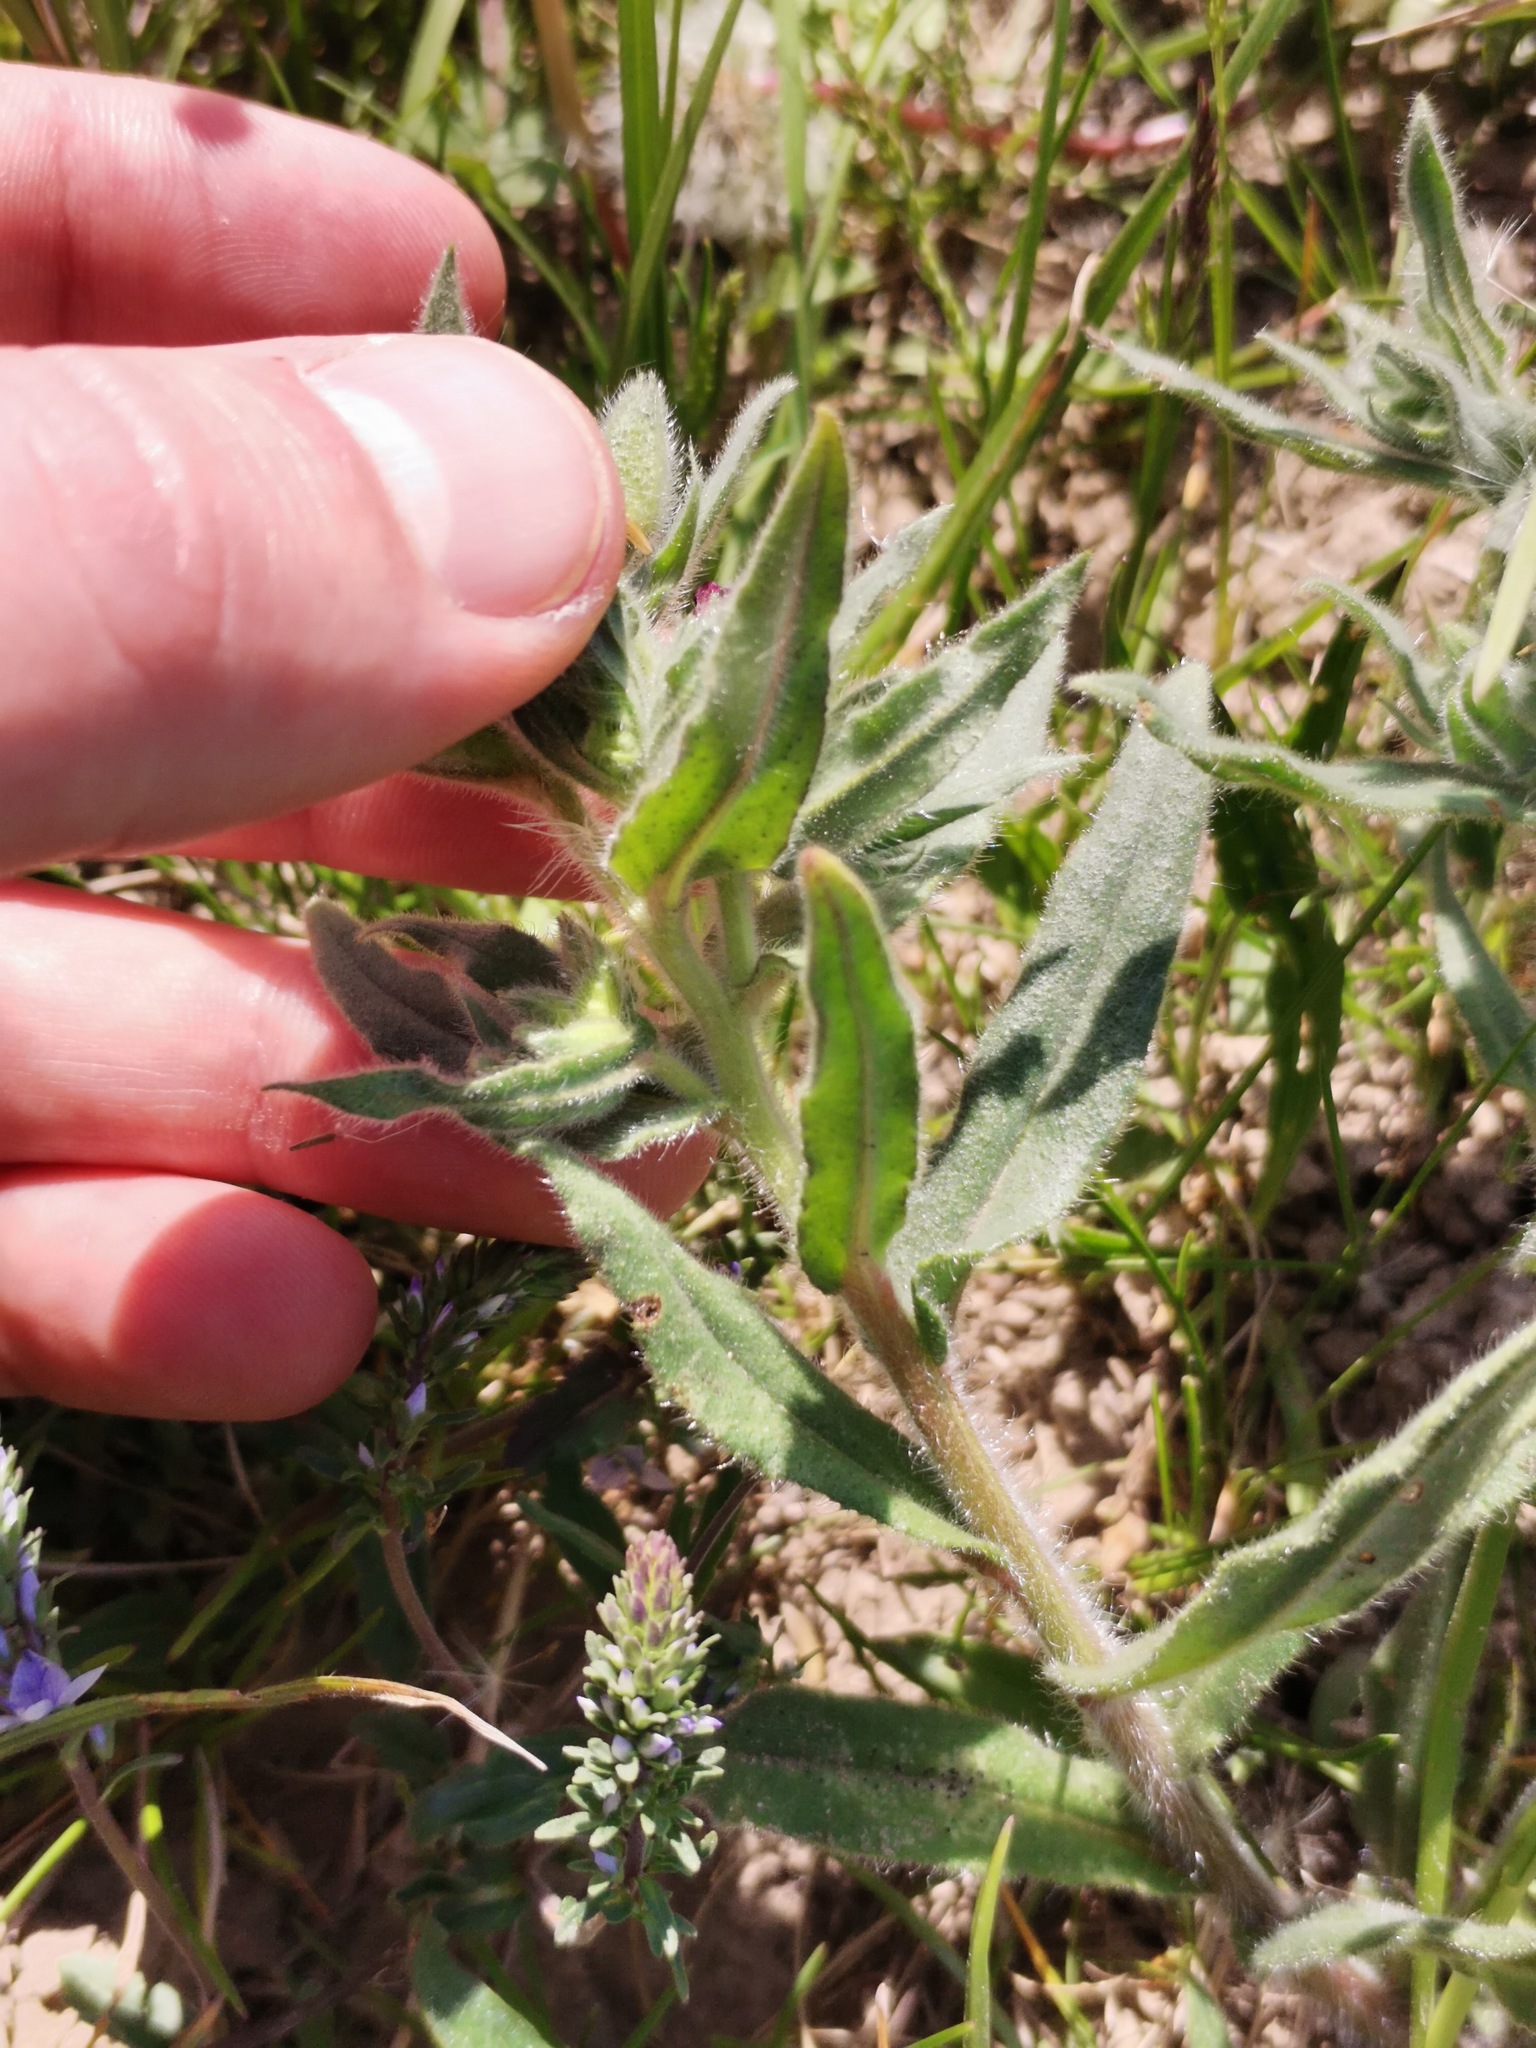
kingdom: Plantae
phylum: Tracheophyta
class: Magnoliopsida
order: Boraginales
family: Boraginaceae
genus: Nonea
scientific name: Nonea pulla
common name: Brown nonea
